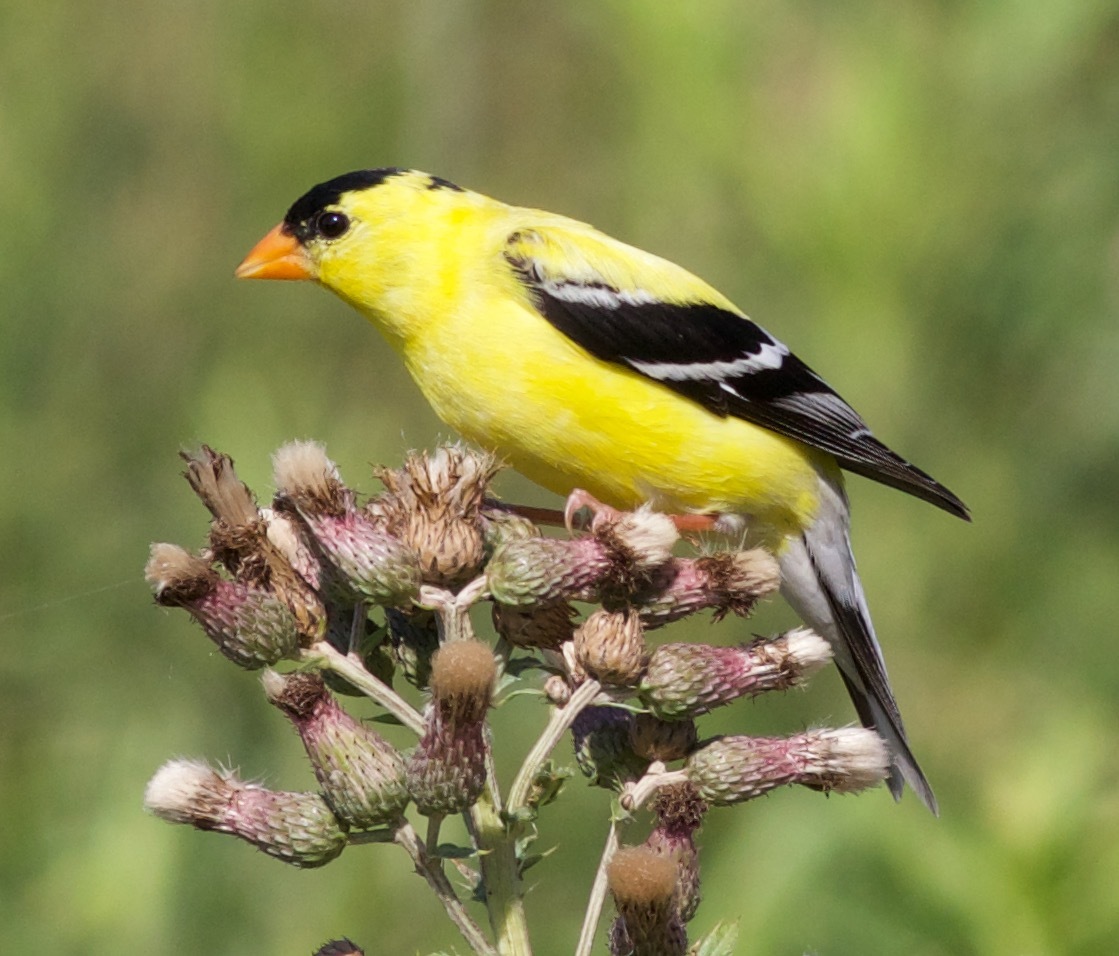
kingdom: Animalia
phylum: Chordata
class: Aves
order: Passeriformes
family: Fringillidae
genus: Spinus
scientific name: Spinus tristis
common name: American goldfinch
